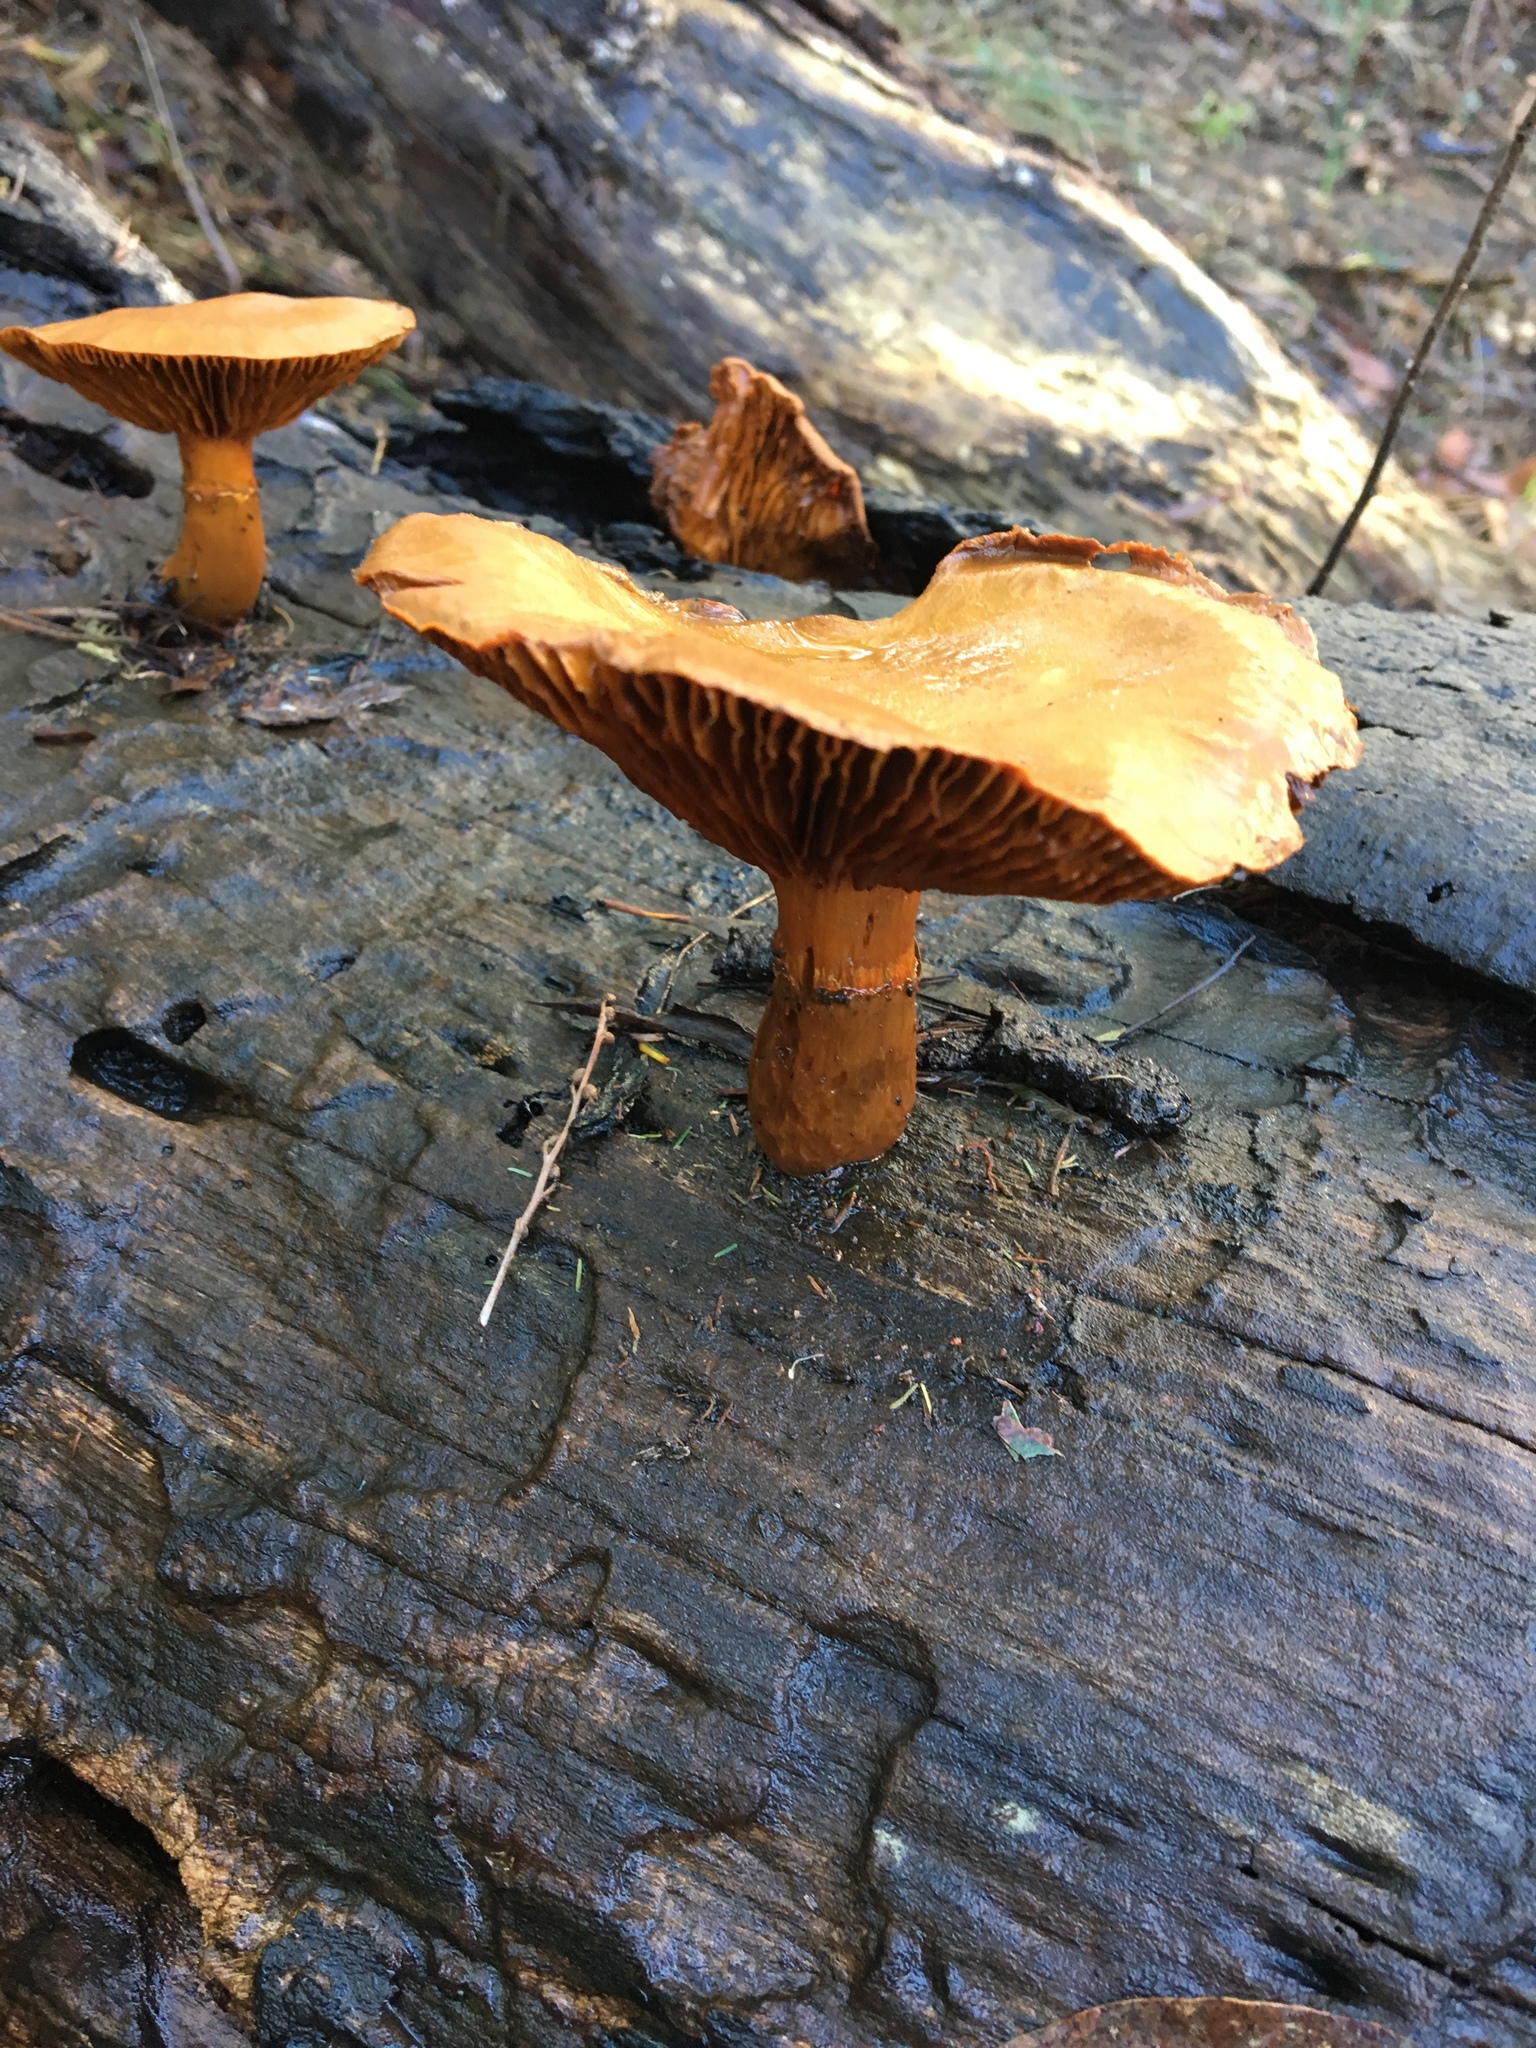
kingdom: Fungi
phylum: Basidiomycota
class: Agaricomycetes
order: Agaricales
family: Hymenogastraceae
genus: Gymnopilus
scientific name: Gymnopilus junonius
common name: Spectacular rustgill
